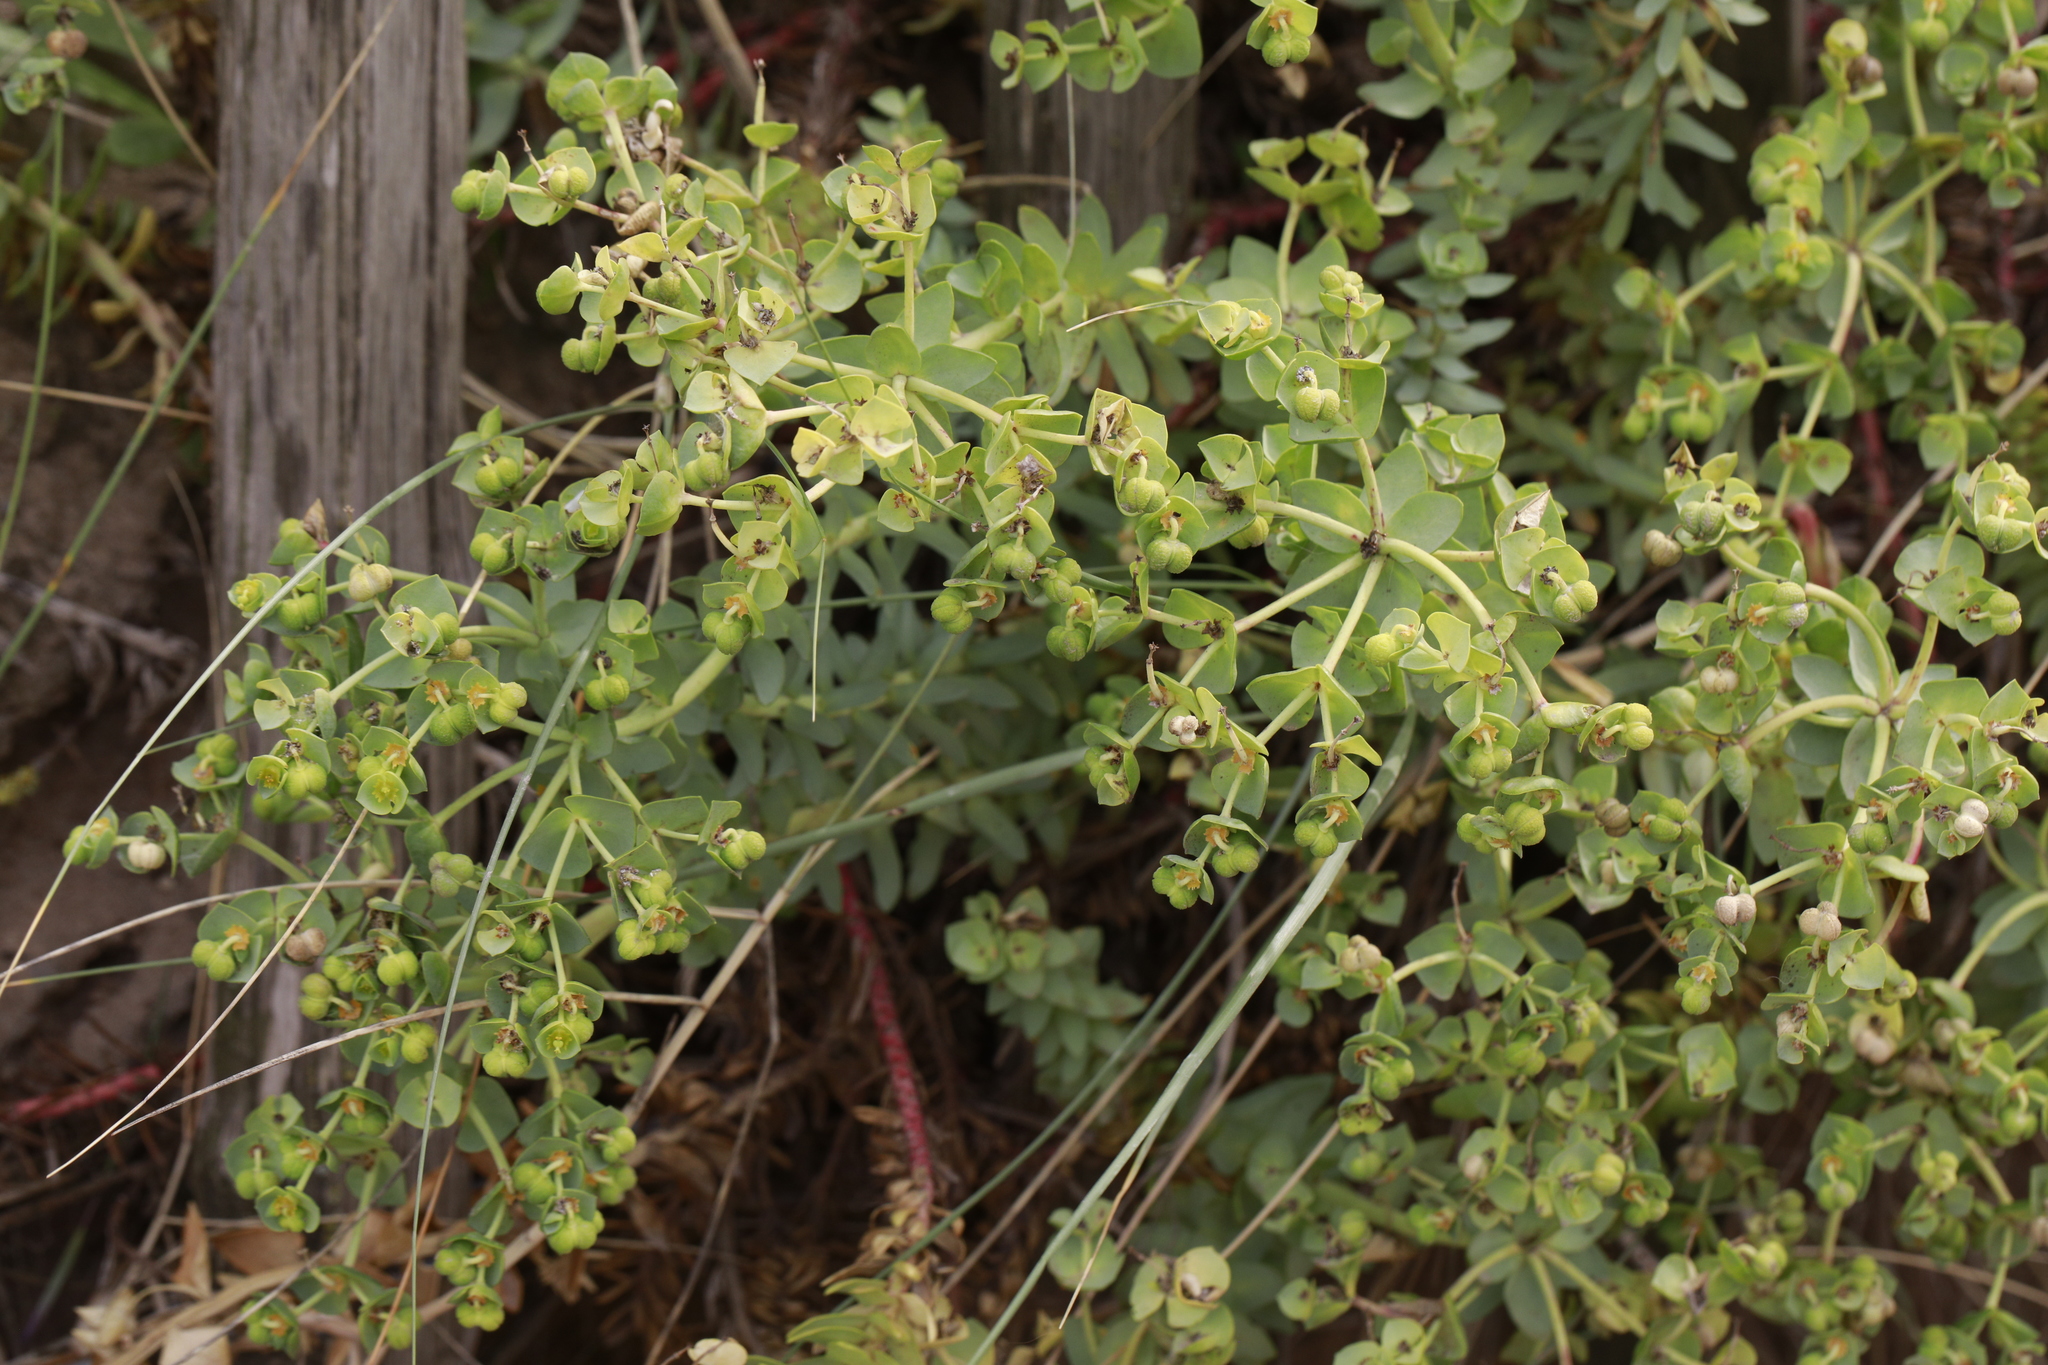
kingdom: Plantae
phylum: Tracheophyta
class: Magnoliopsida
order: Malpighiales
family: Euphorbiaceae
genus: Euphorbia
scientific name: Euphorbia paralias
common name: Sea spurge
